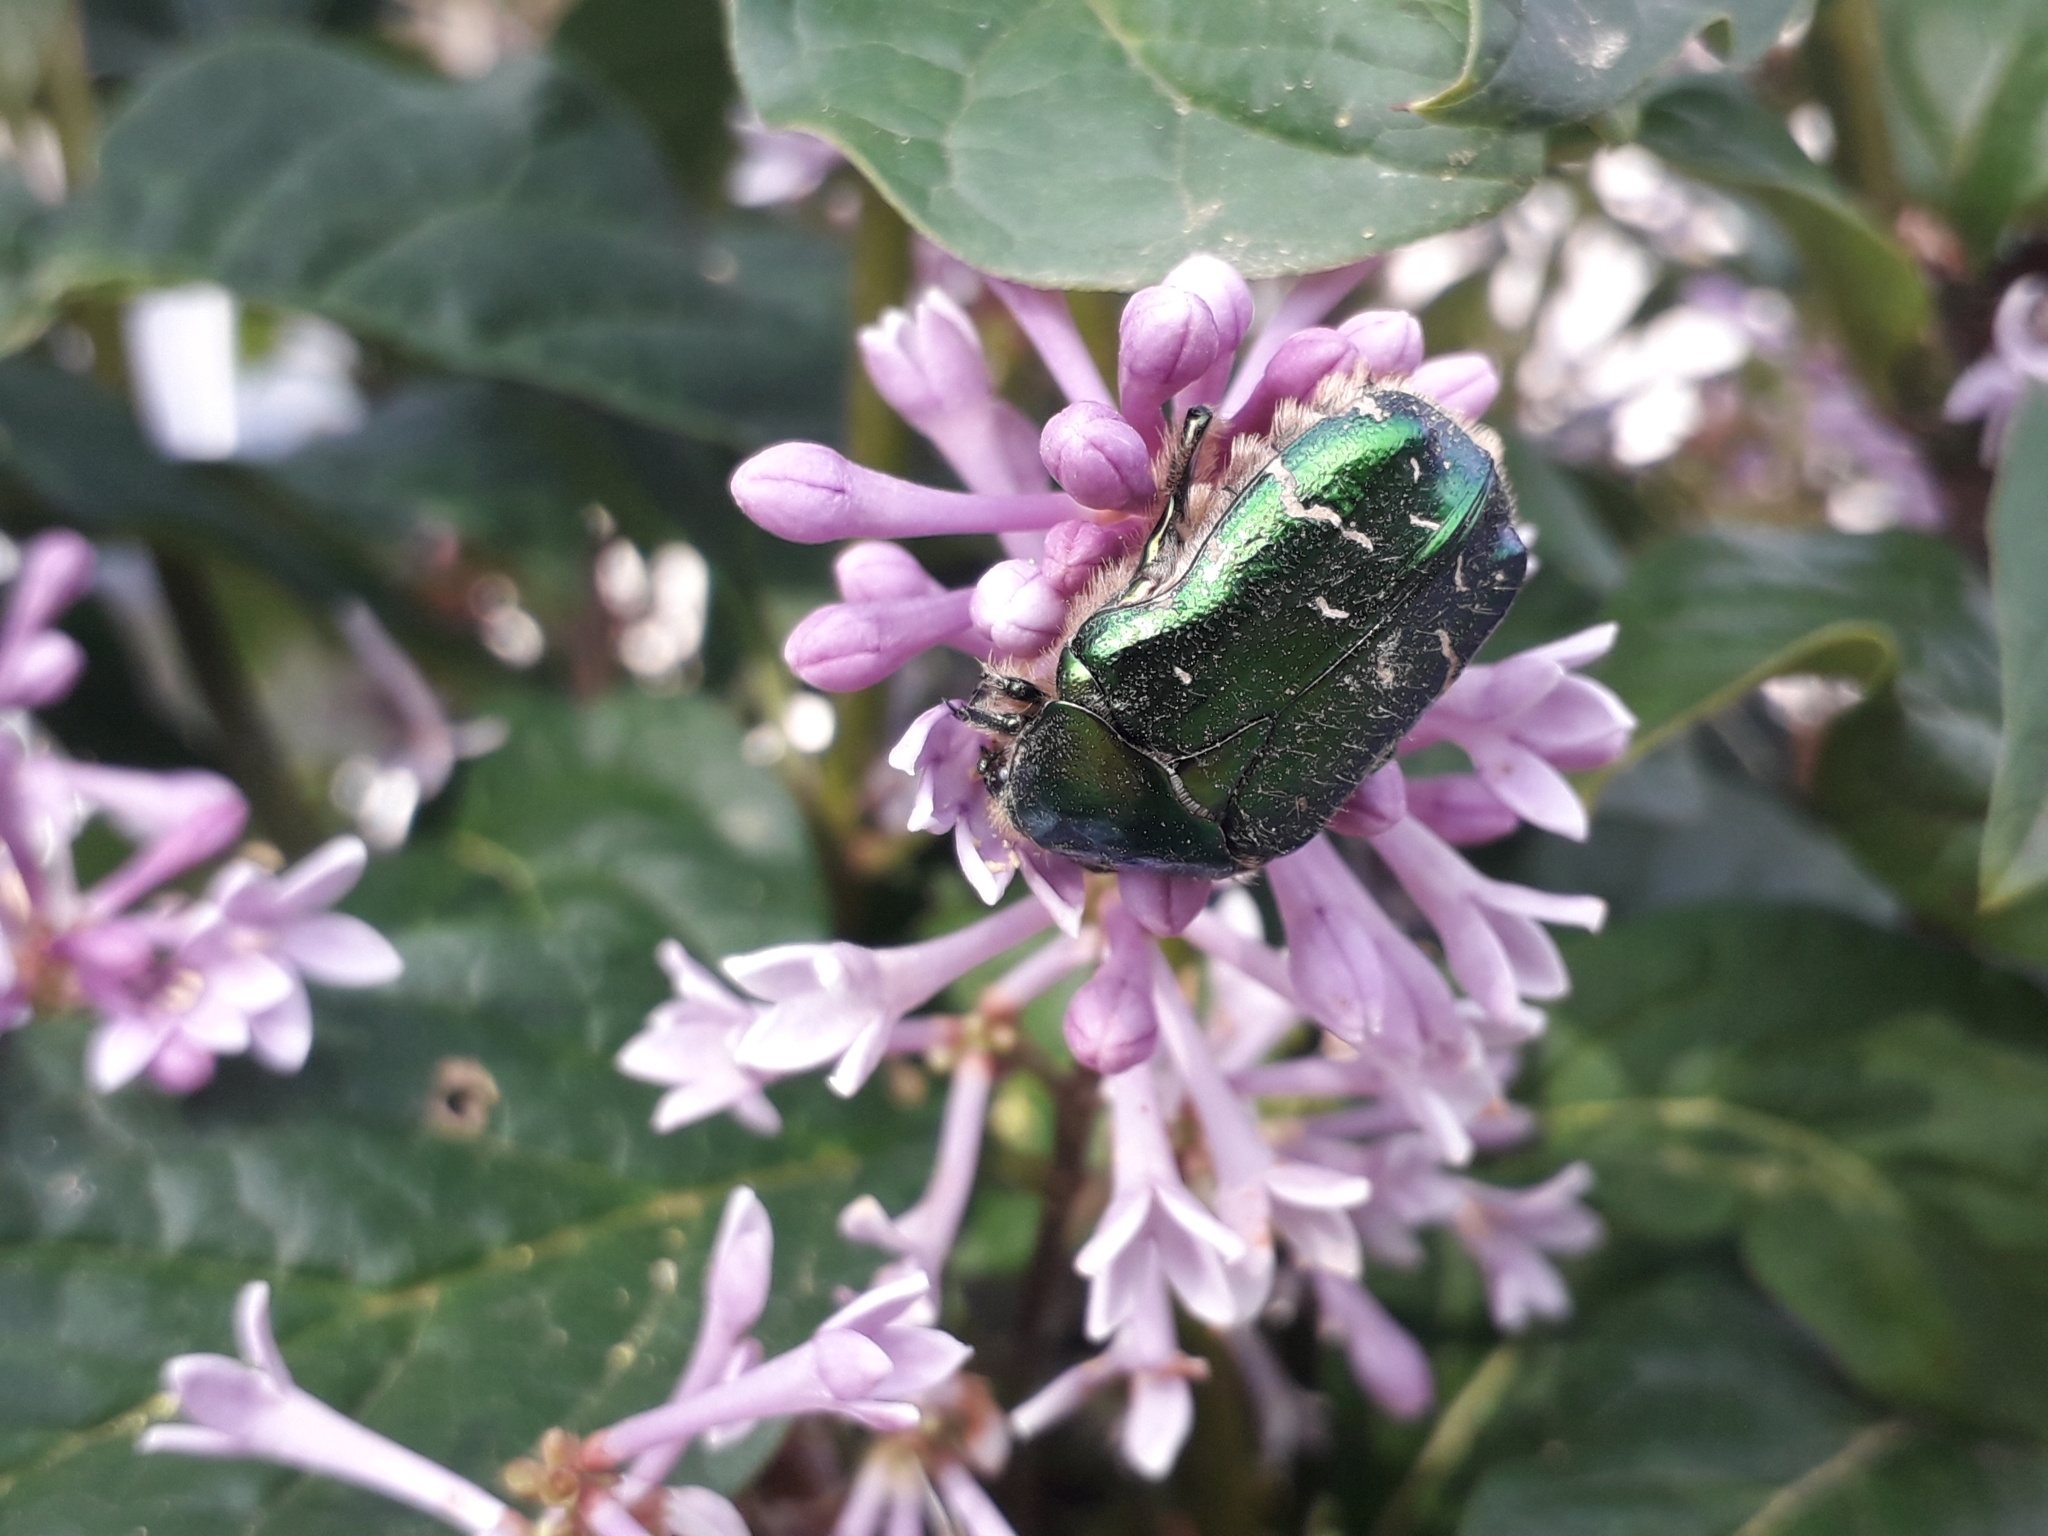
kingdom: Animalia
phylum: Arthropoda
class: Insecta
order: Coleoptera
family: Scarabaeidae
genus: Cetonia
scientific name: Cetonia aurata
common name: Rose chafer
